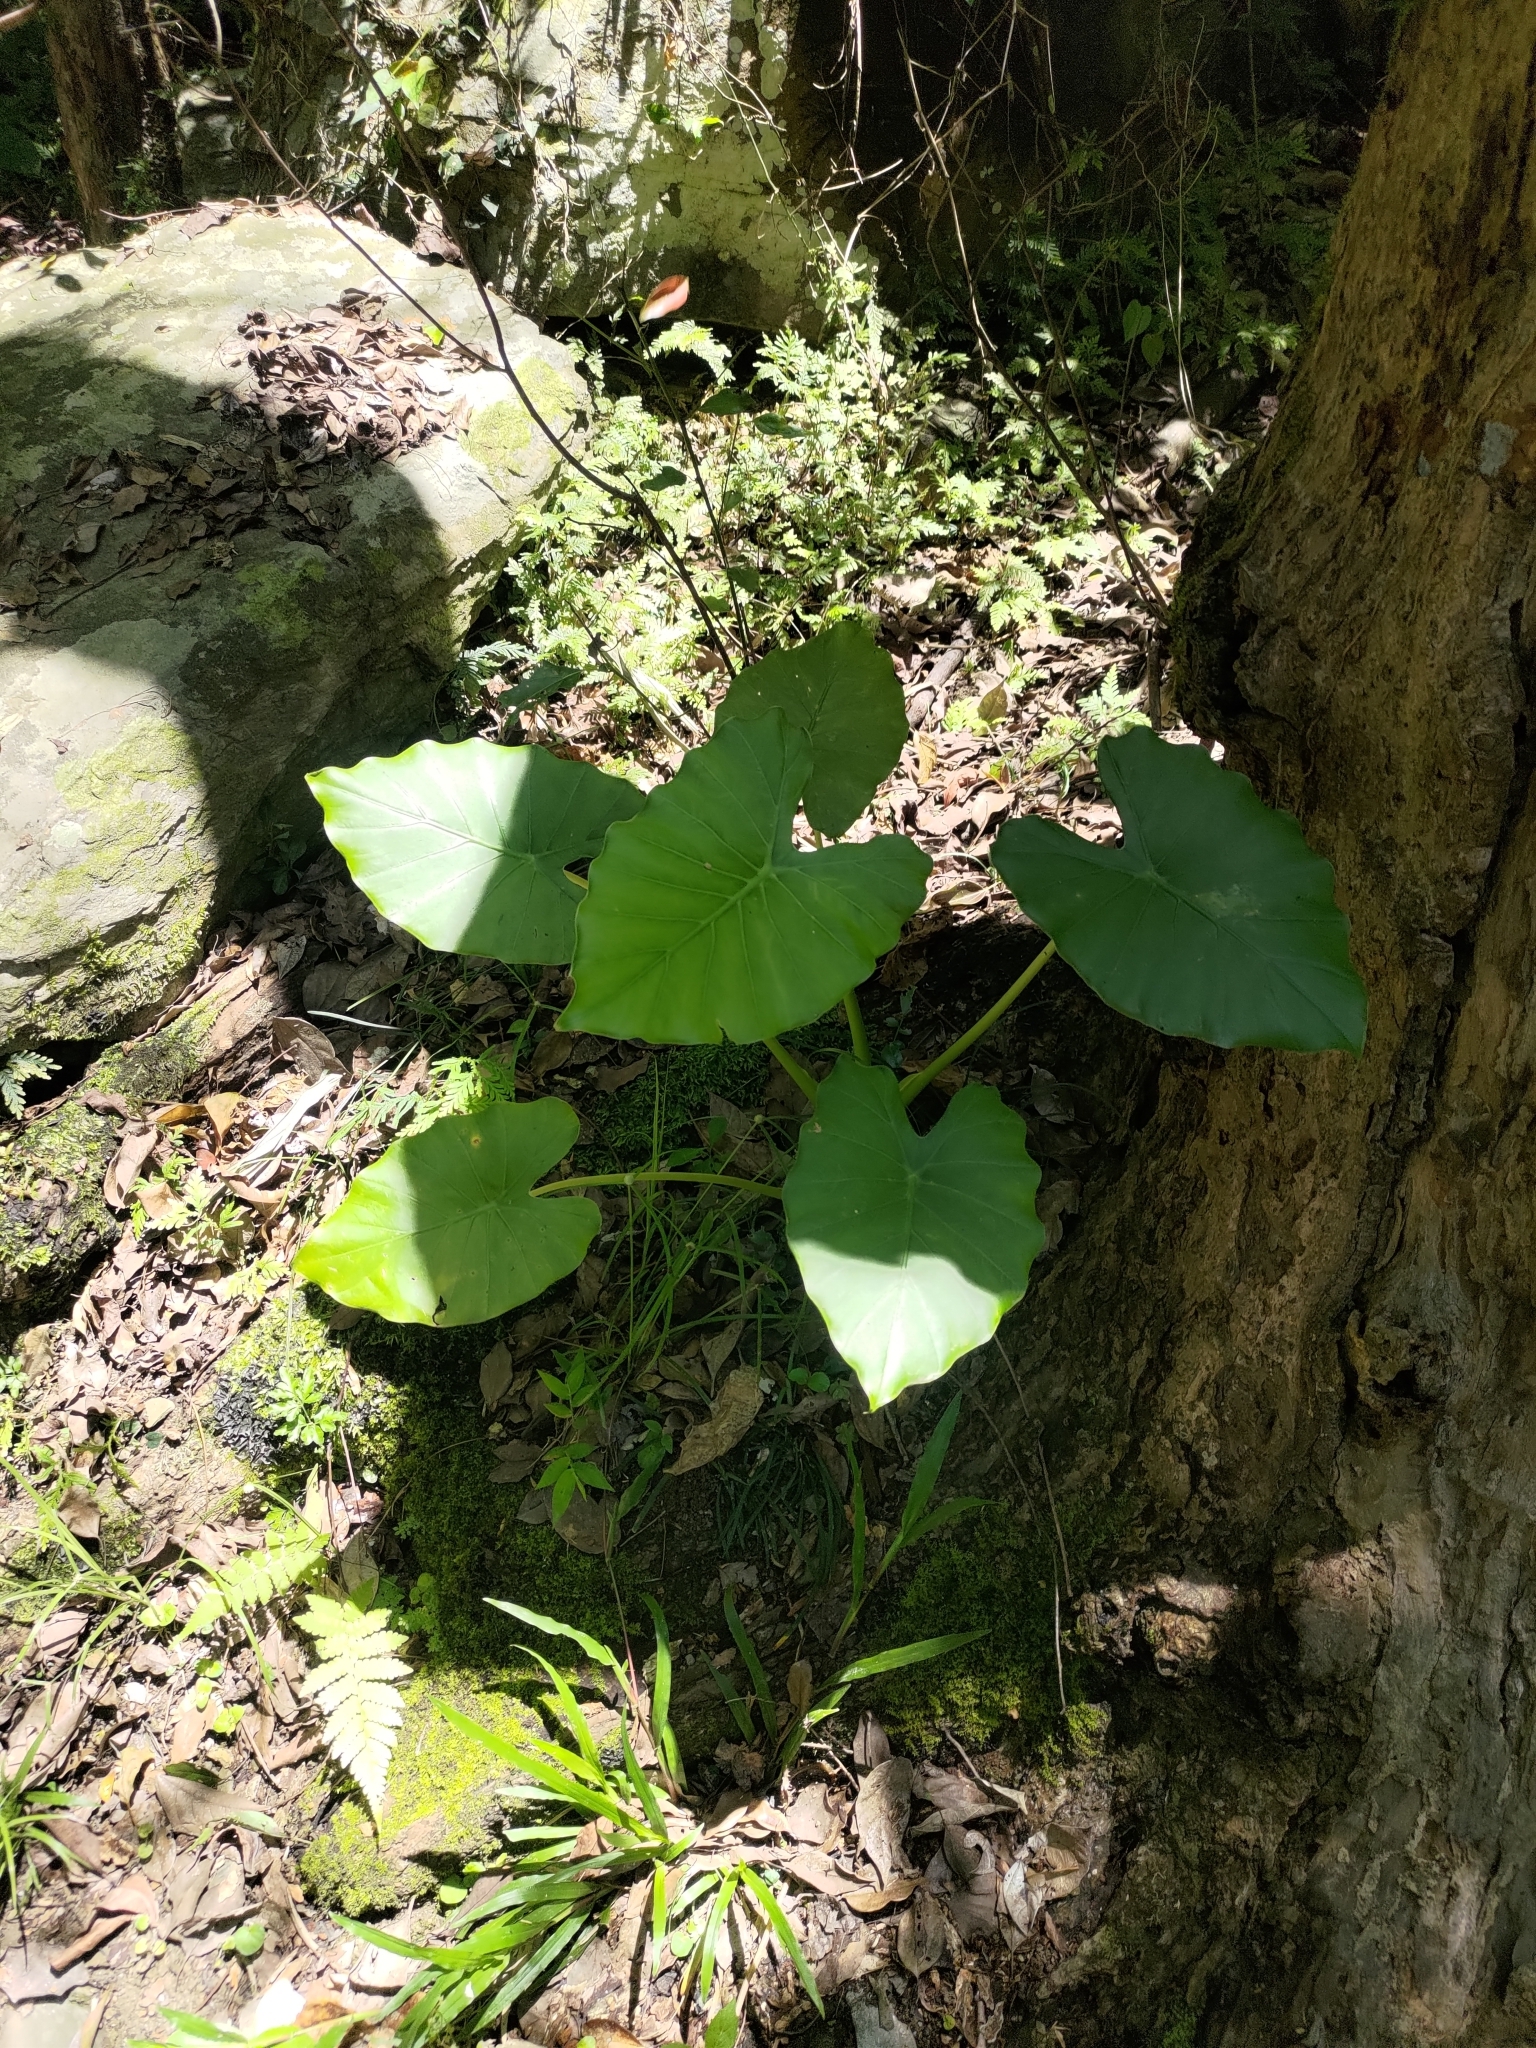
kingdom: Plantae
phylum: Tracheophyta
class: Liliopsida
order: Alismatales
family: Araceae
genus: Alocasia
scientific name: Alocasia odora
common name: Asian taro
